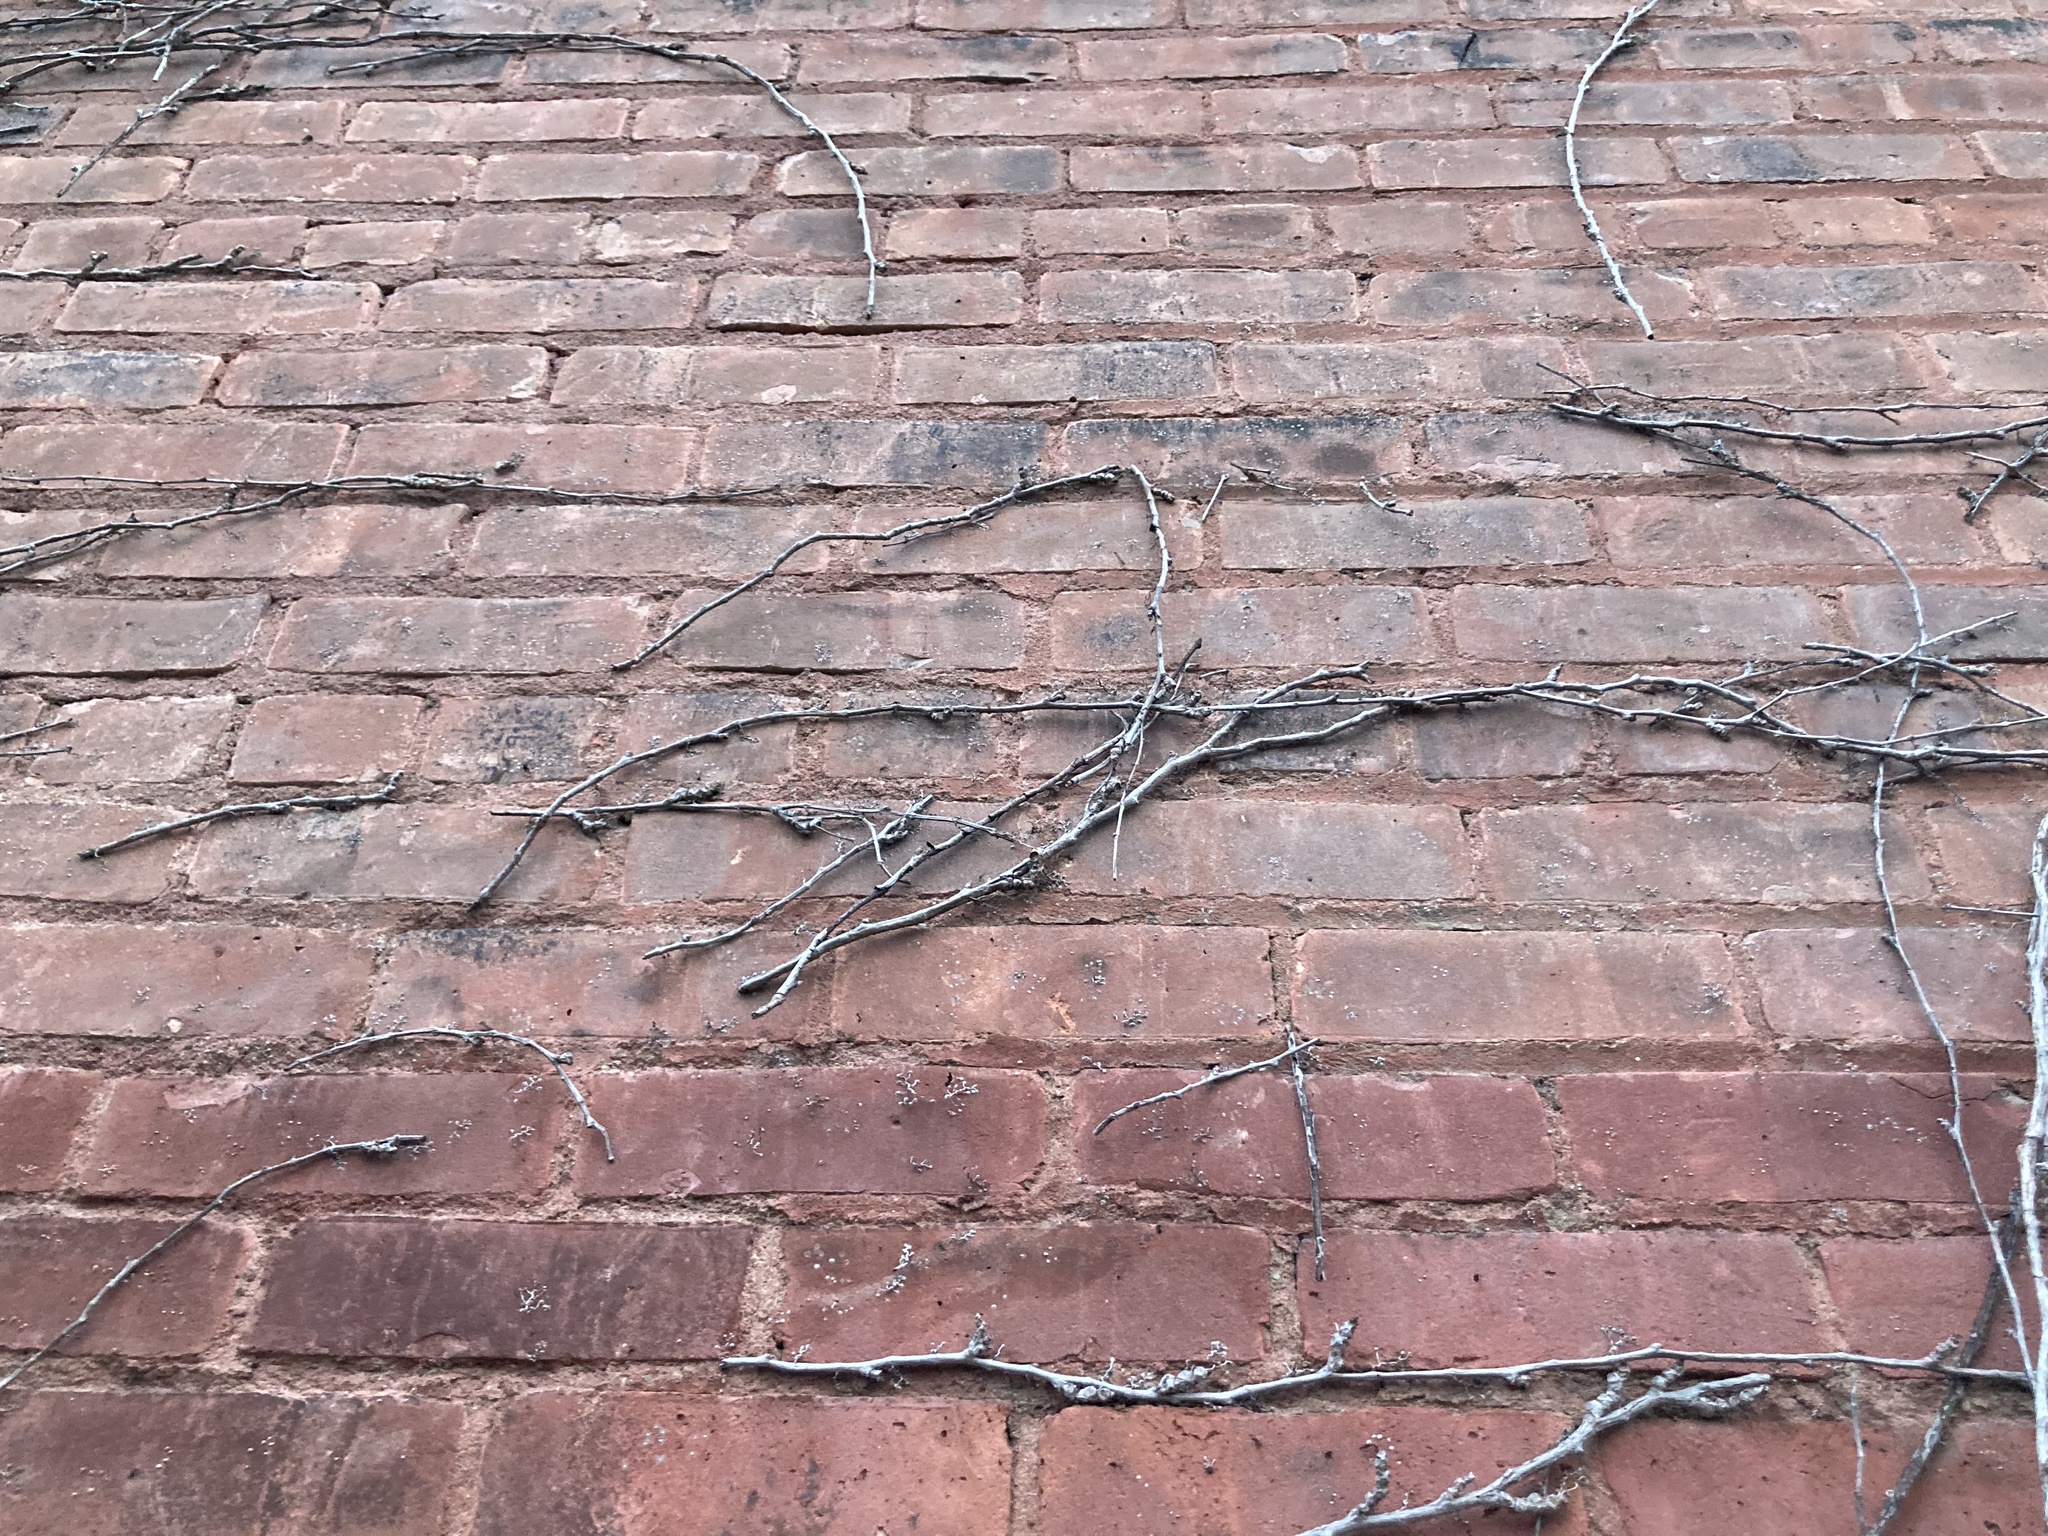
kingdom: Plantae
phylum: Tracheophyta
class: Magnoliopsida
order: Vitales
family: Vitaceae
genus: Parthenocissus
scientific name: Parthenocissus quinquefolia
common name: Virginia-creeper
